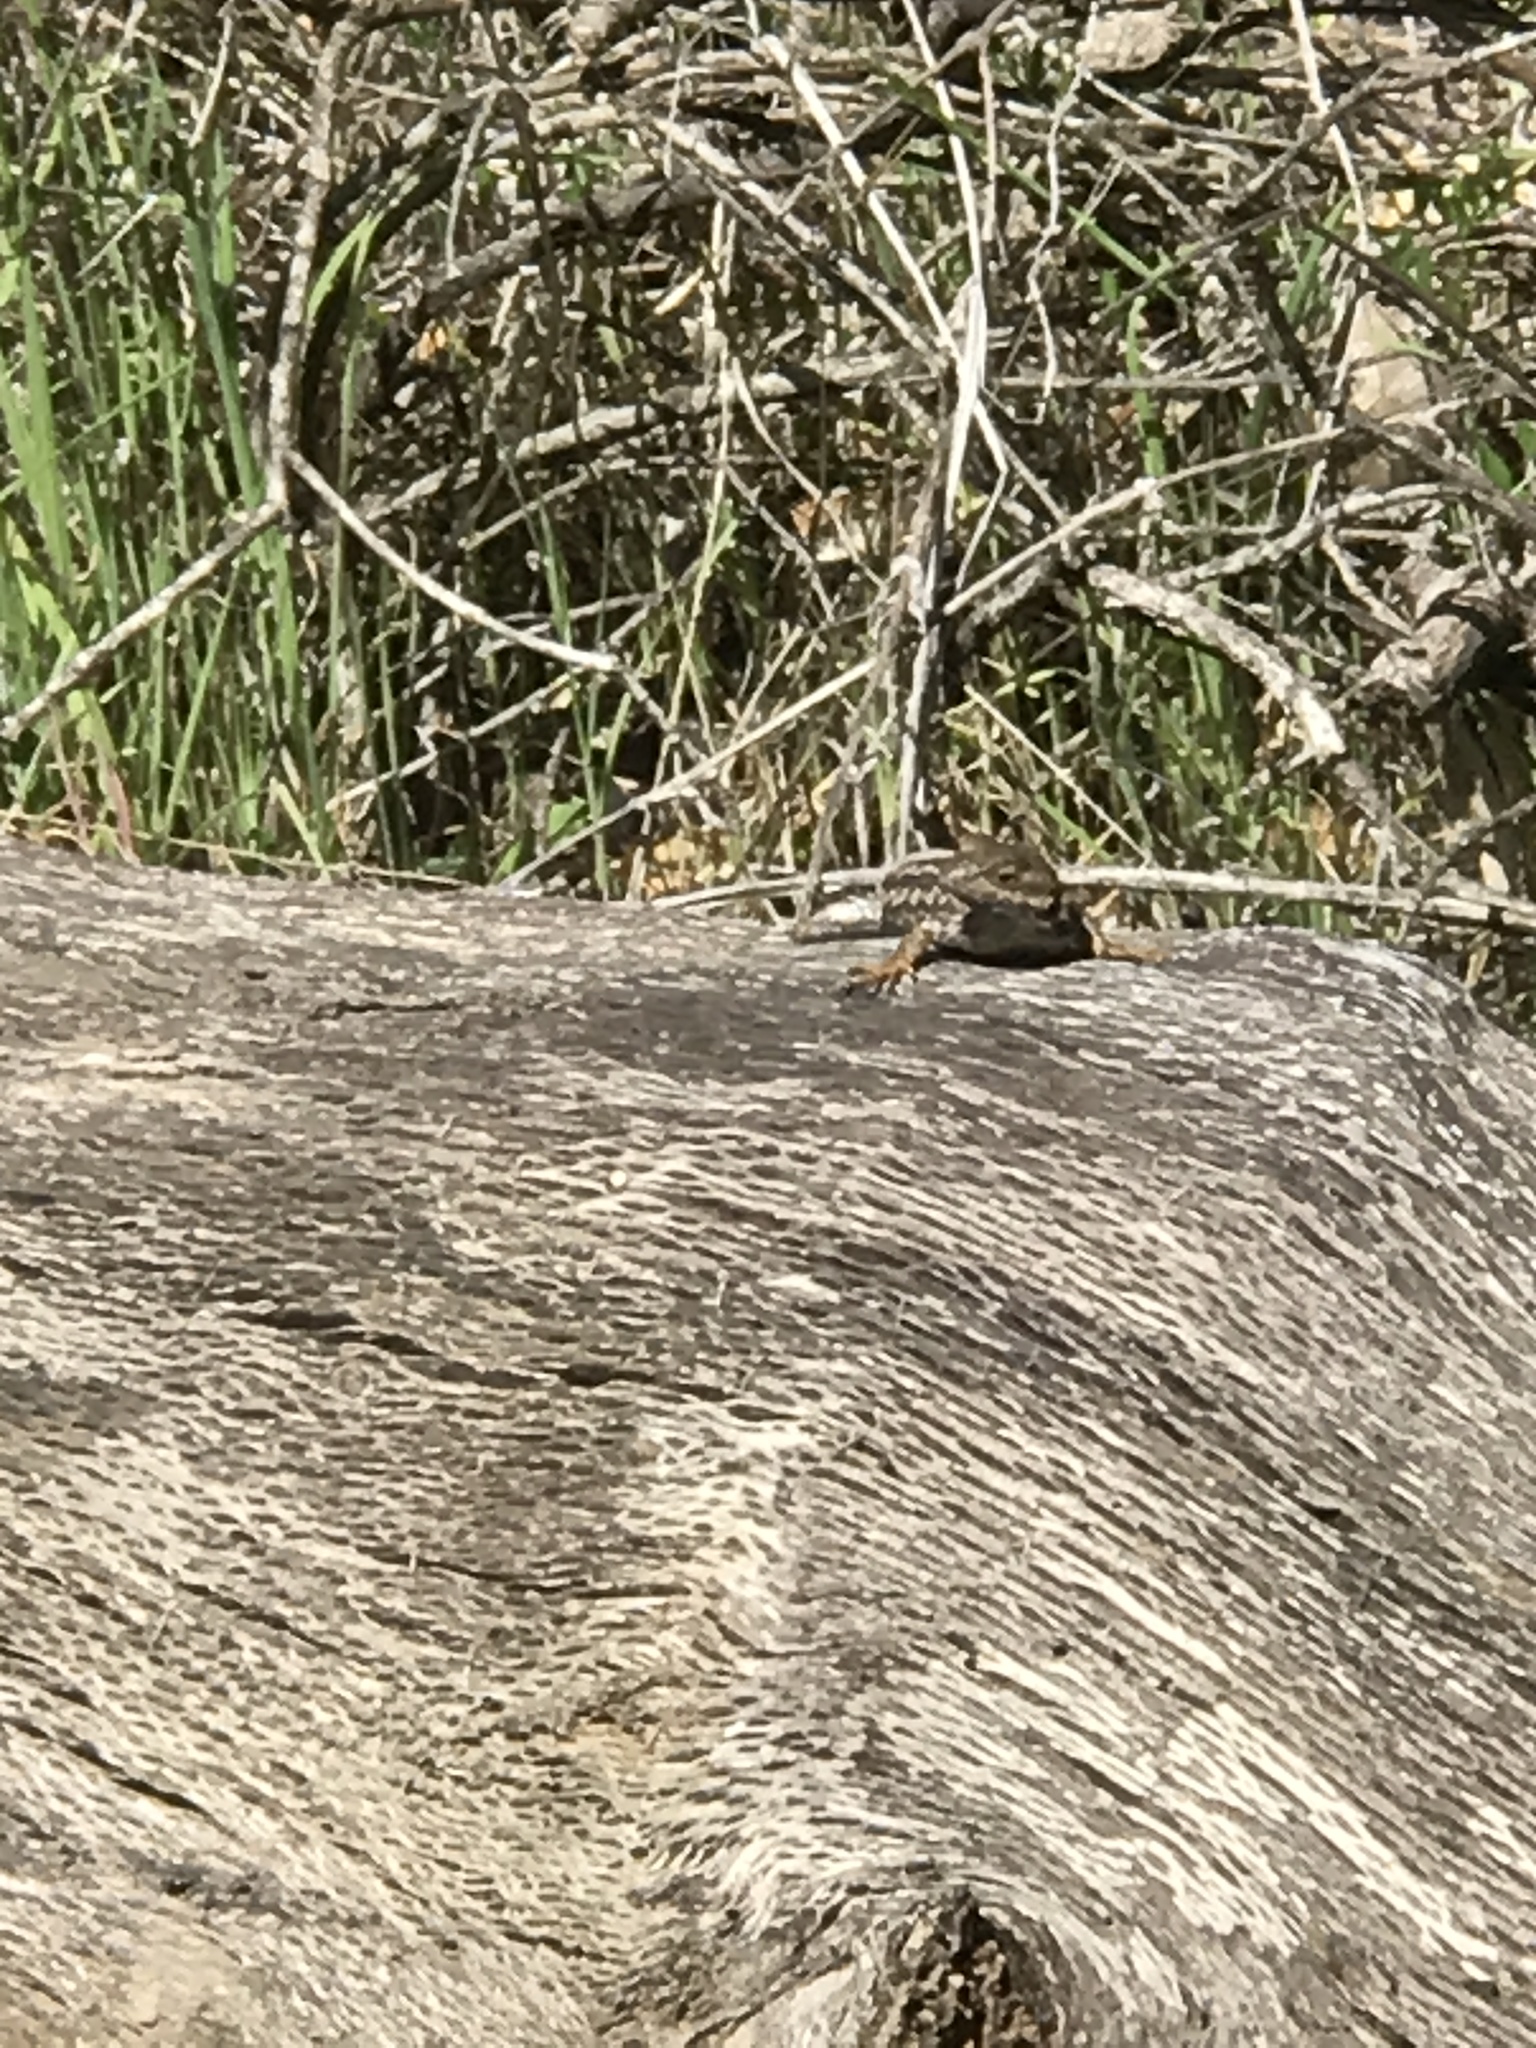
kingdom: Animalia
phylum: Chordata
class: Squamata
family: Phrynosomatidae
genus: Sceloporus
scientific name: Sceloporus occidentalis
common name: Western fence lizard
